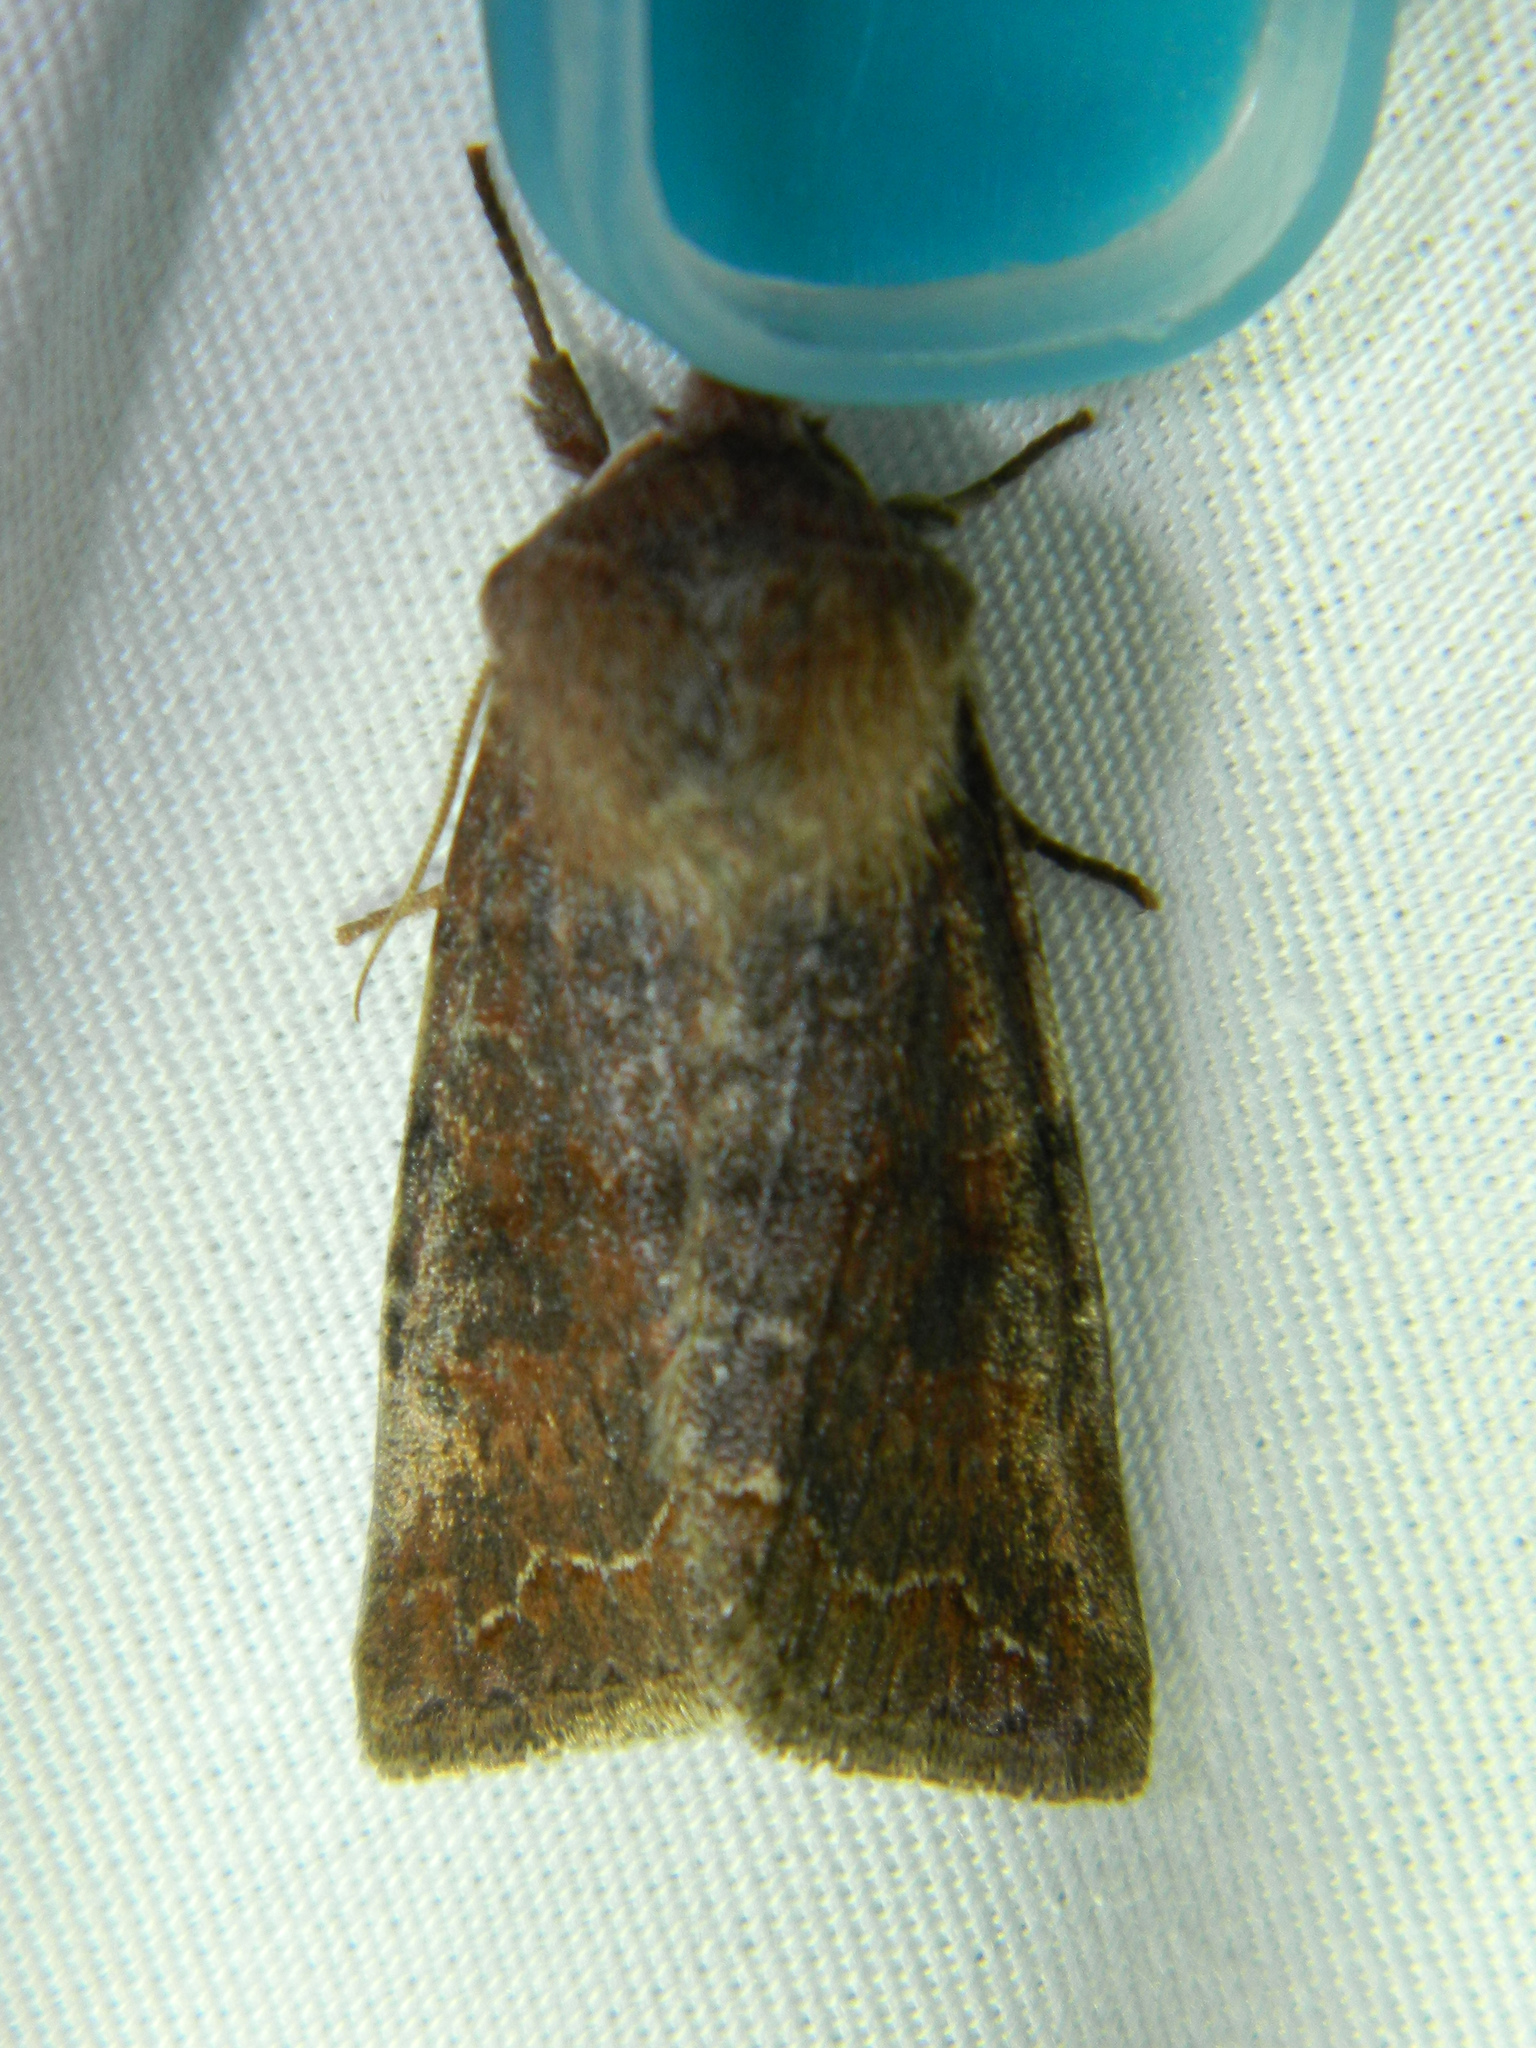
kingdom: Animalia
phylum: Arthropoda
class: Insecta
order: Lepidoptera
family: Noctuidae
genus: Orthosia
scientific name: Orthosia revicta
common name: Rusty whitesided caterpillar
